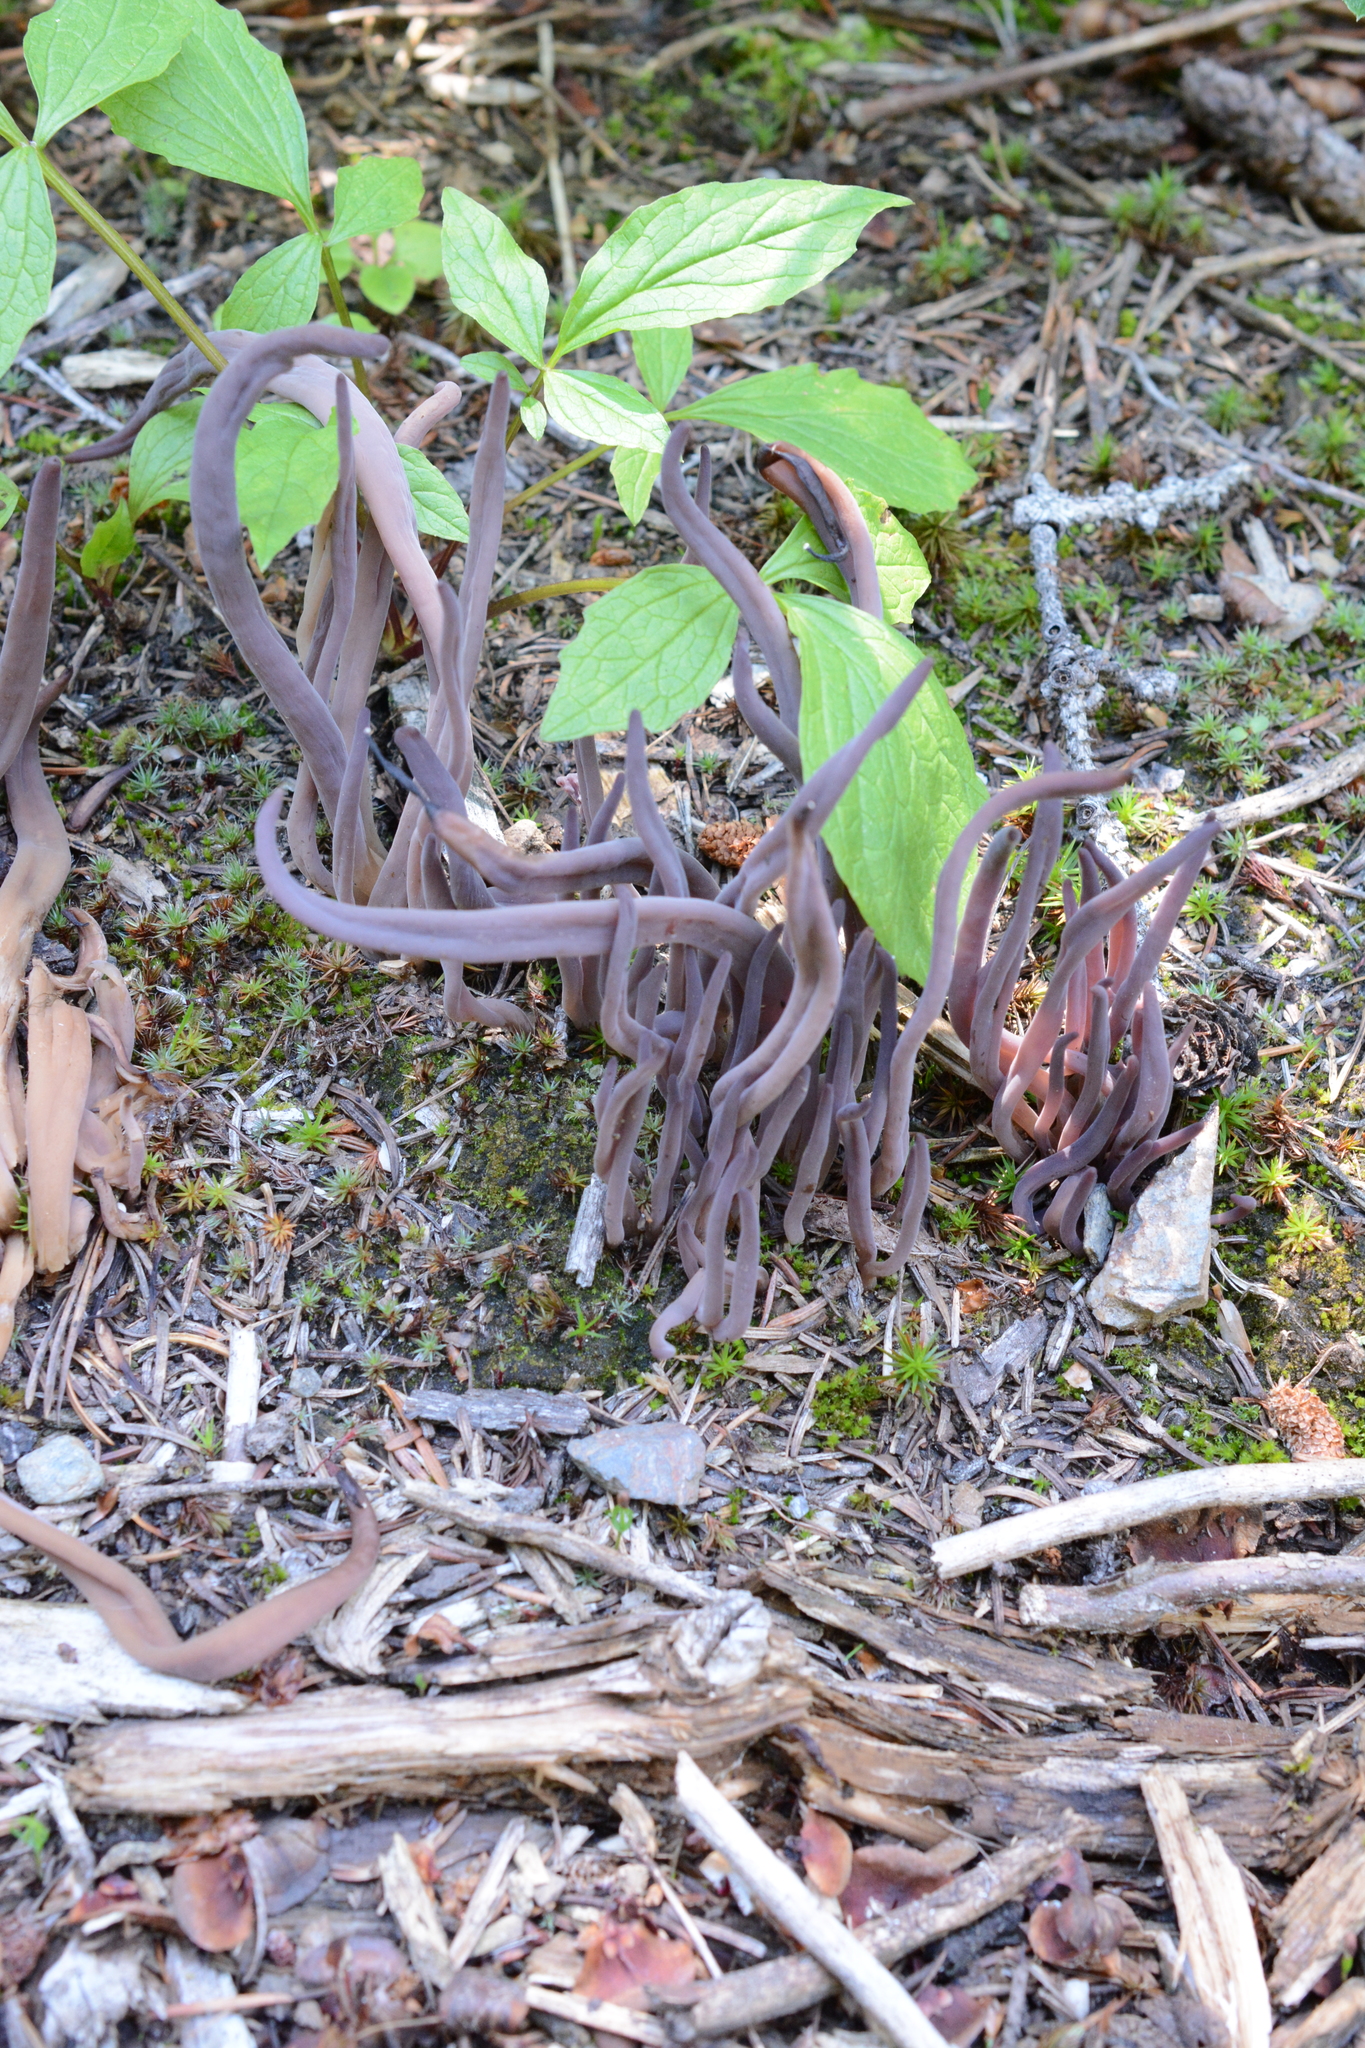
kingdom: Fungi
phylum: Basidiomycota
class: Agaricomycetes
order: Hymenochaetales
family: Rickenellaceae
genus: Alloclavaria
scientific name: Alloclavaria purpurea
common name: Purple spindles
